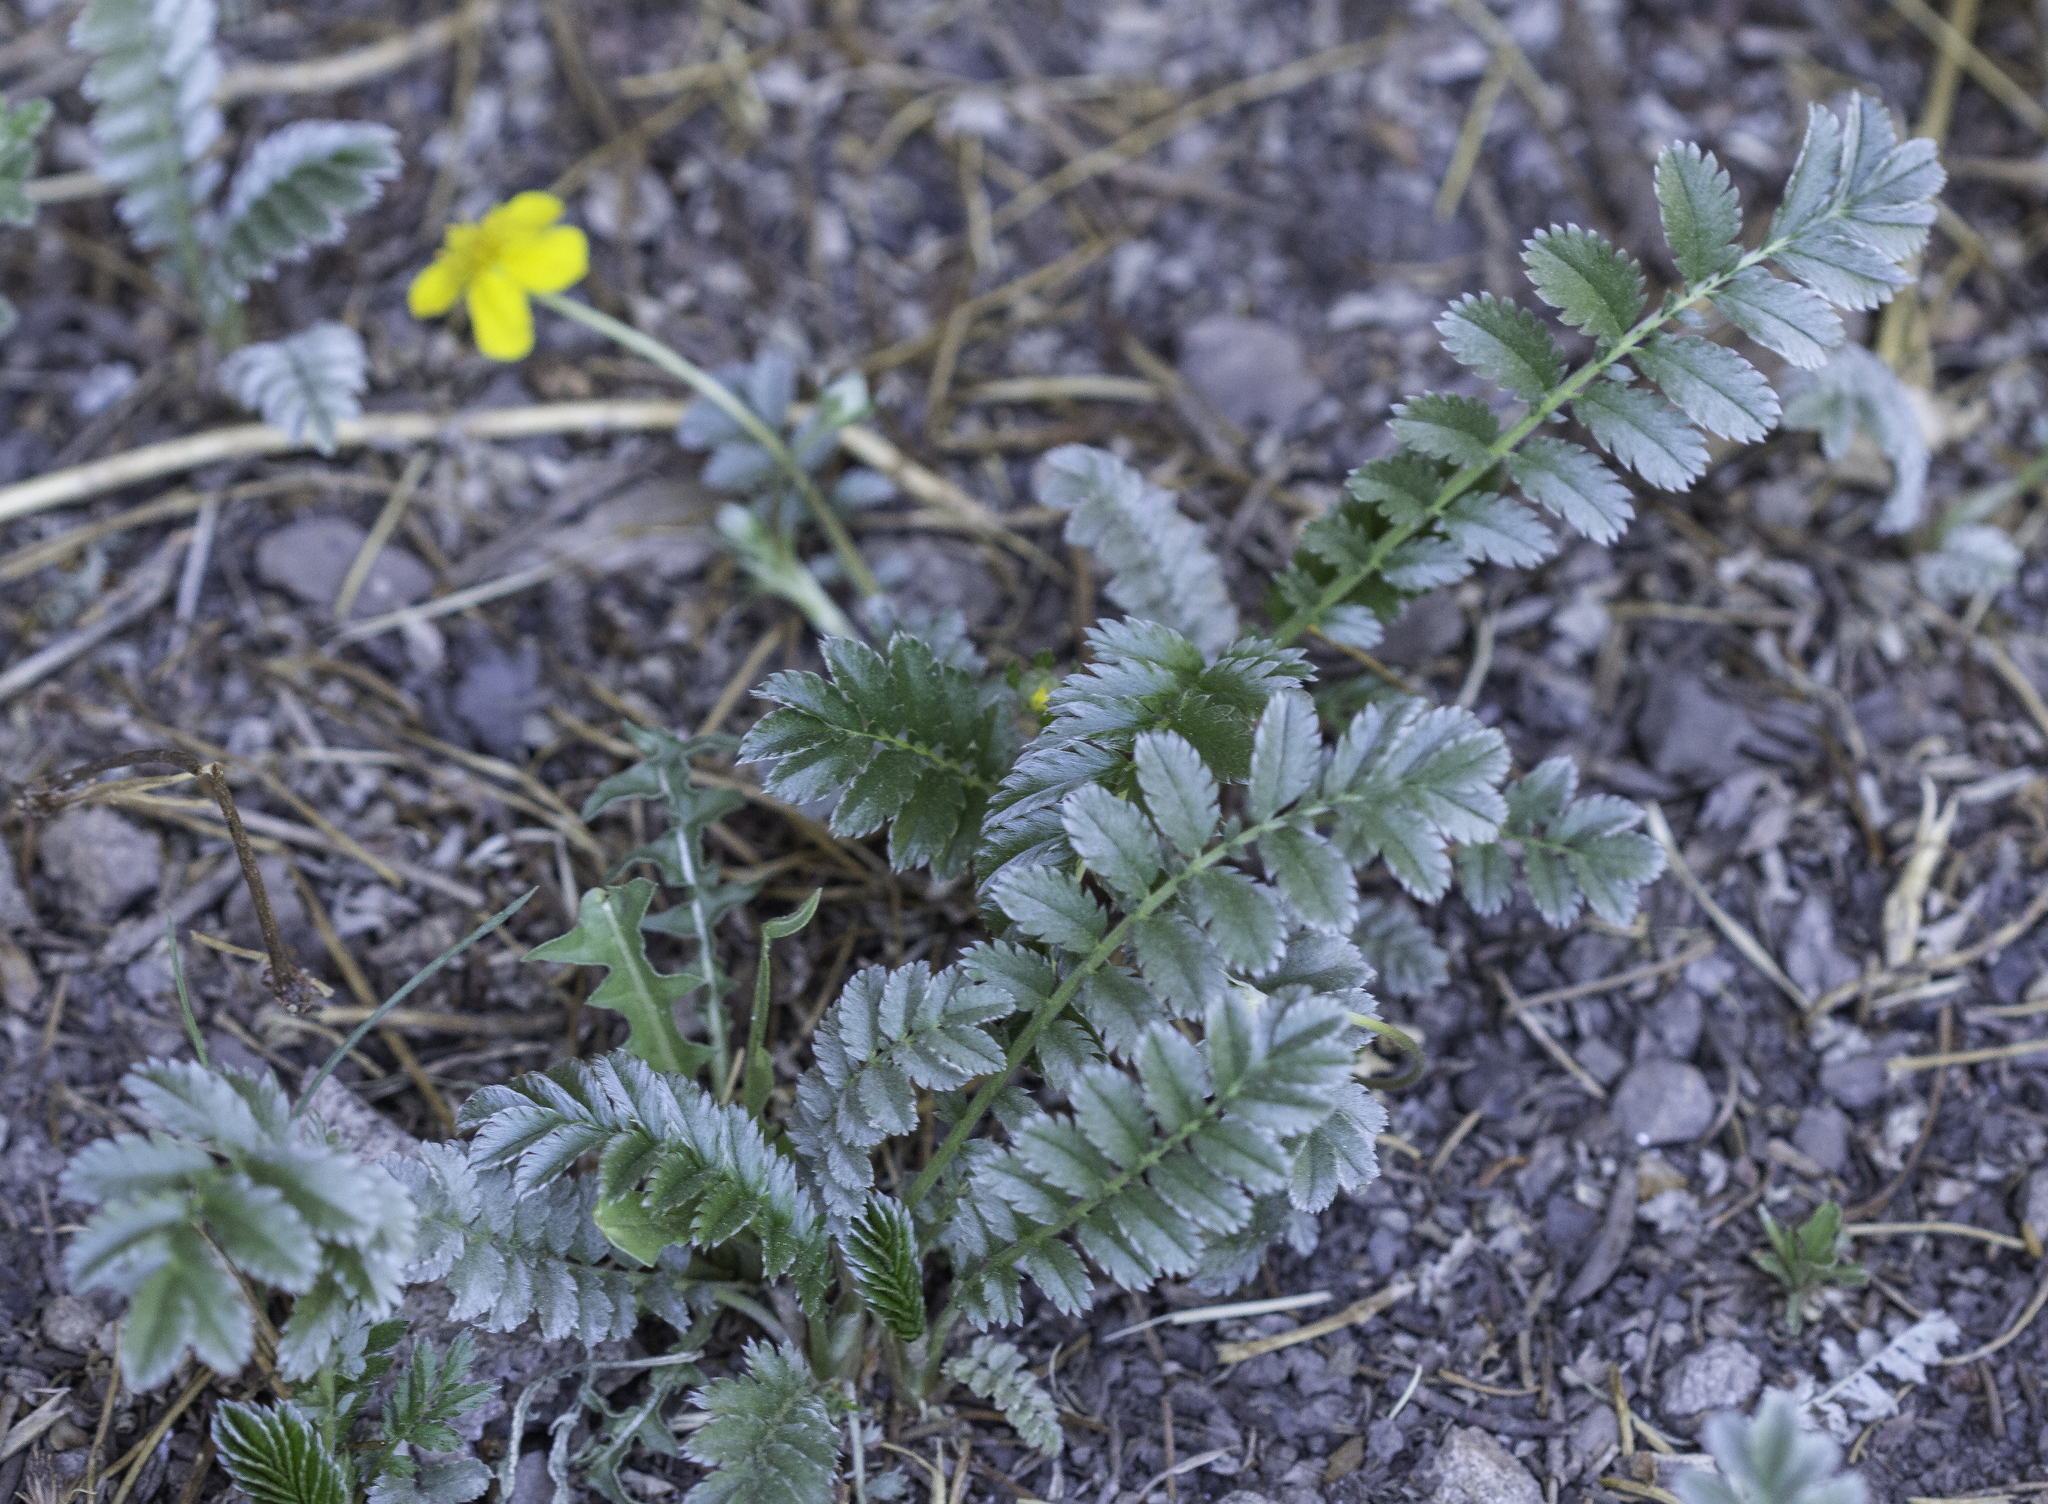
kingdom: Plantae
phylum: Tracheophyta
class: Magnoliopsida
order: Rosales
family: Rosaceae
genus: Argentina
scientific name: Argentina anserina
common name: Common silverweed
